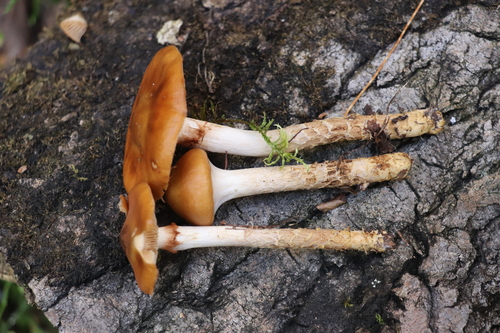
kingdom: Fungi
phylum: Basidiomycota
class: Agaricomycetes
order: Agaricales
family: Cortinariaceae
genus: Cortinarius
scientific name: Cortinarius trivialis
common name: Girdled webcap
